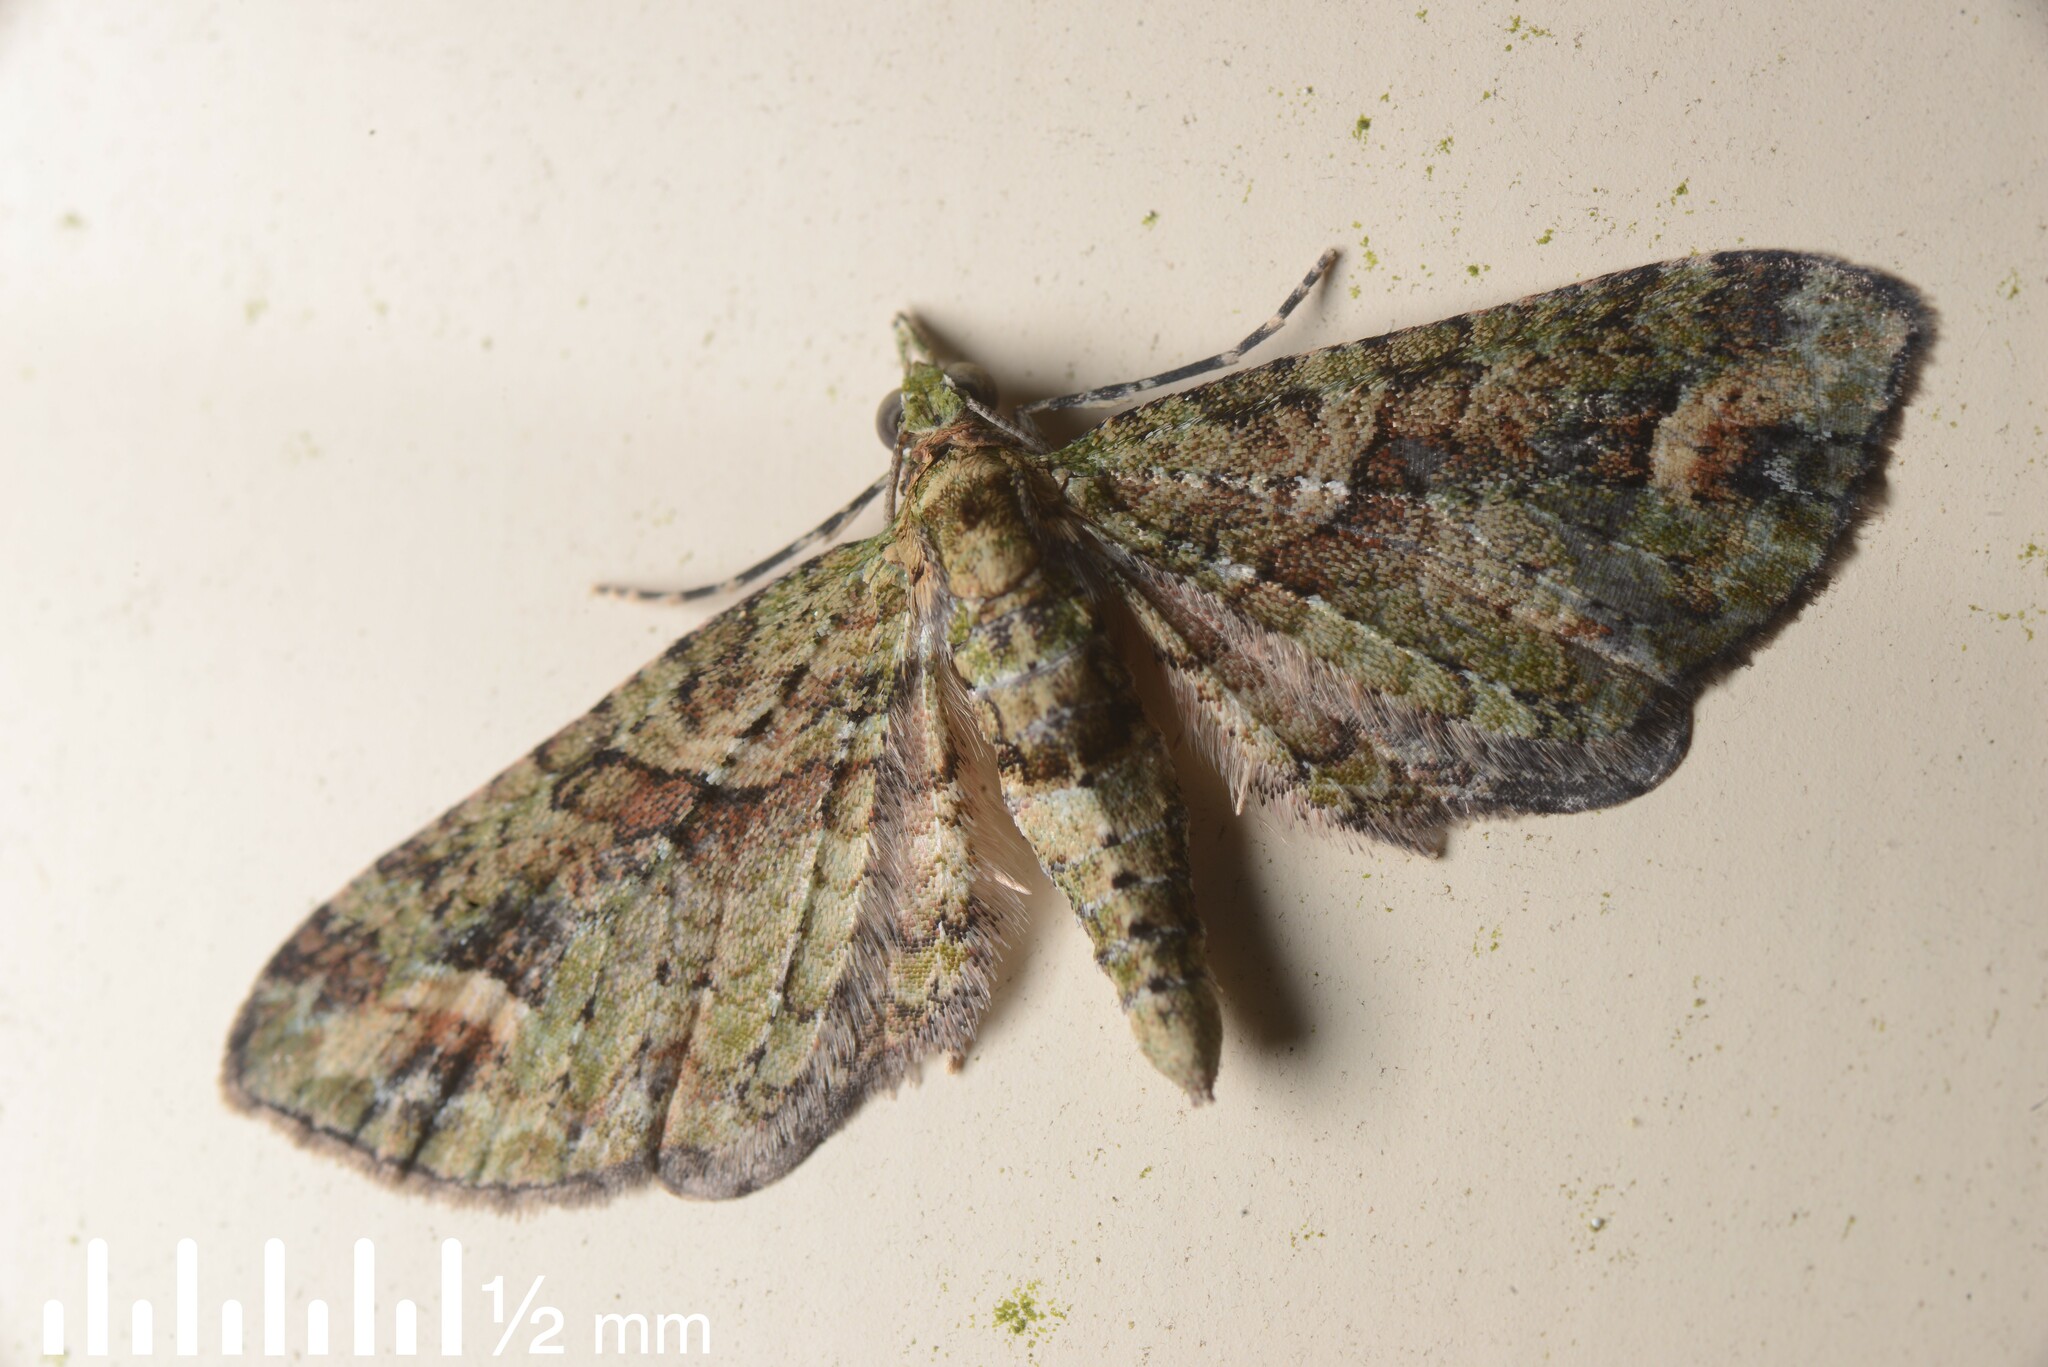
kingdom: Animalia
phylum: Arthropoda
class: Insecta
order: Lepidoptera
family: Geometridae
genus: Idaea
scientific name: Idaea mutanda
